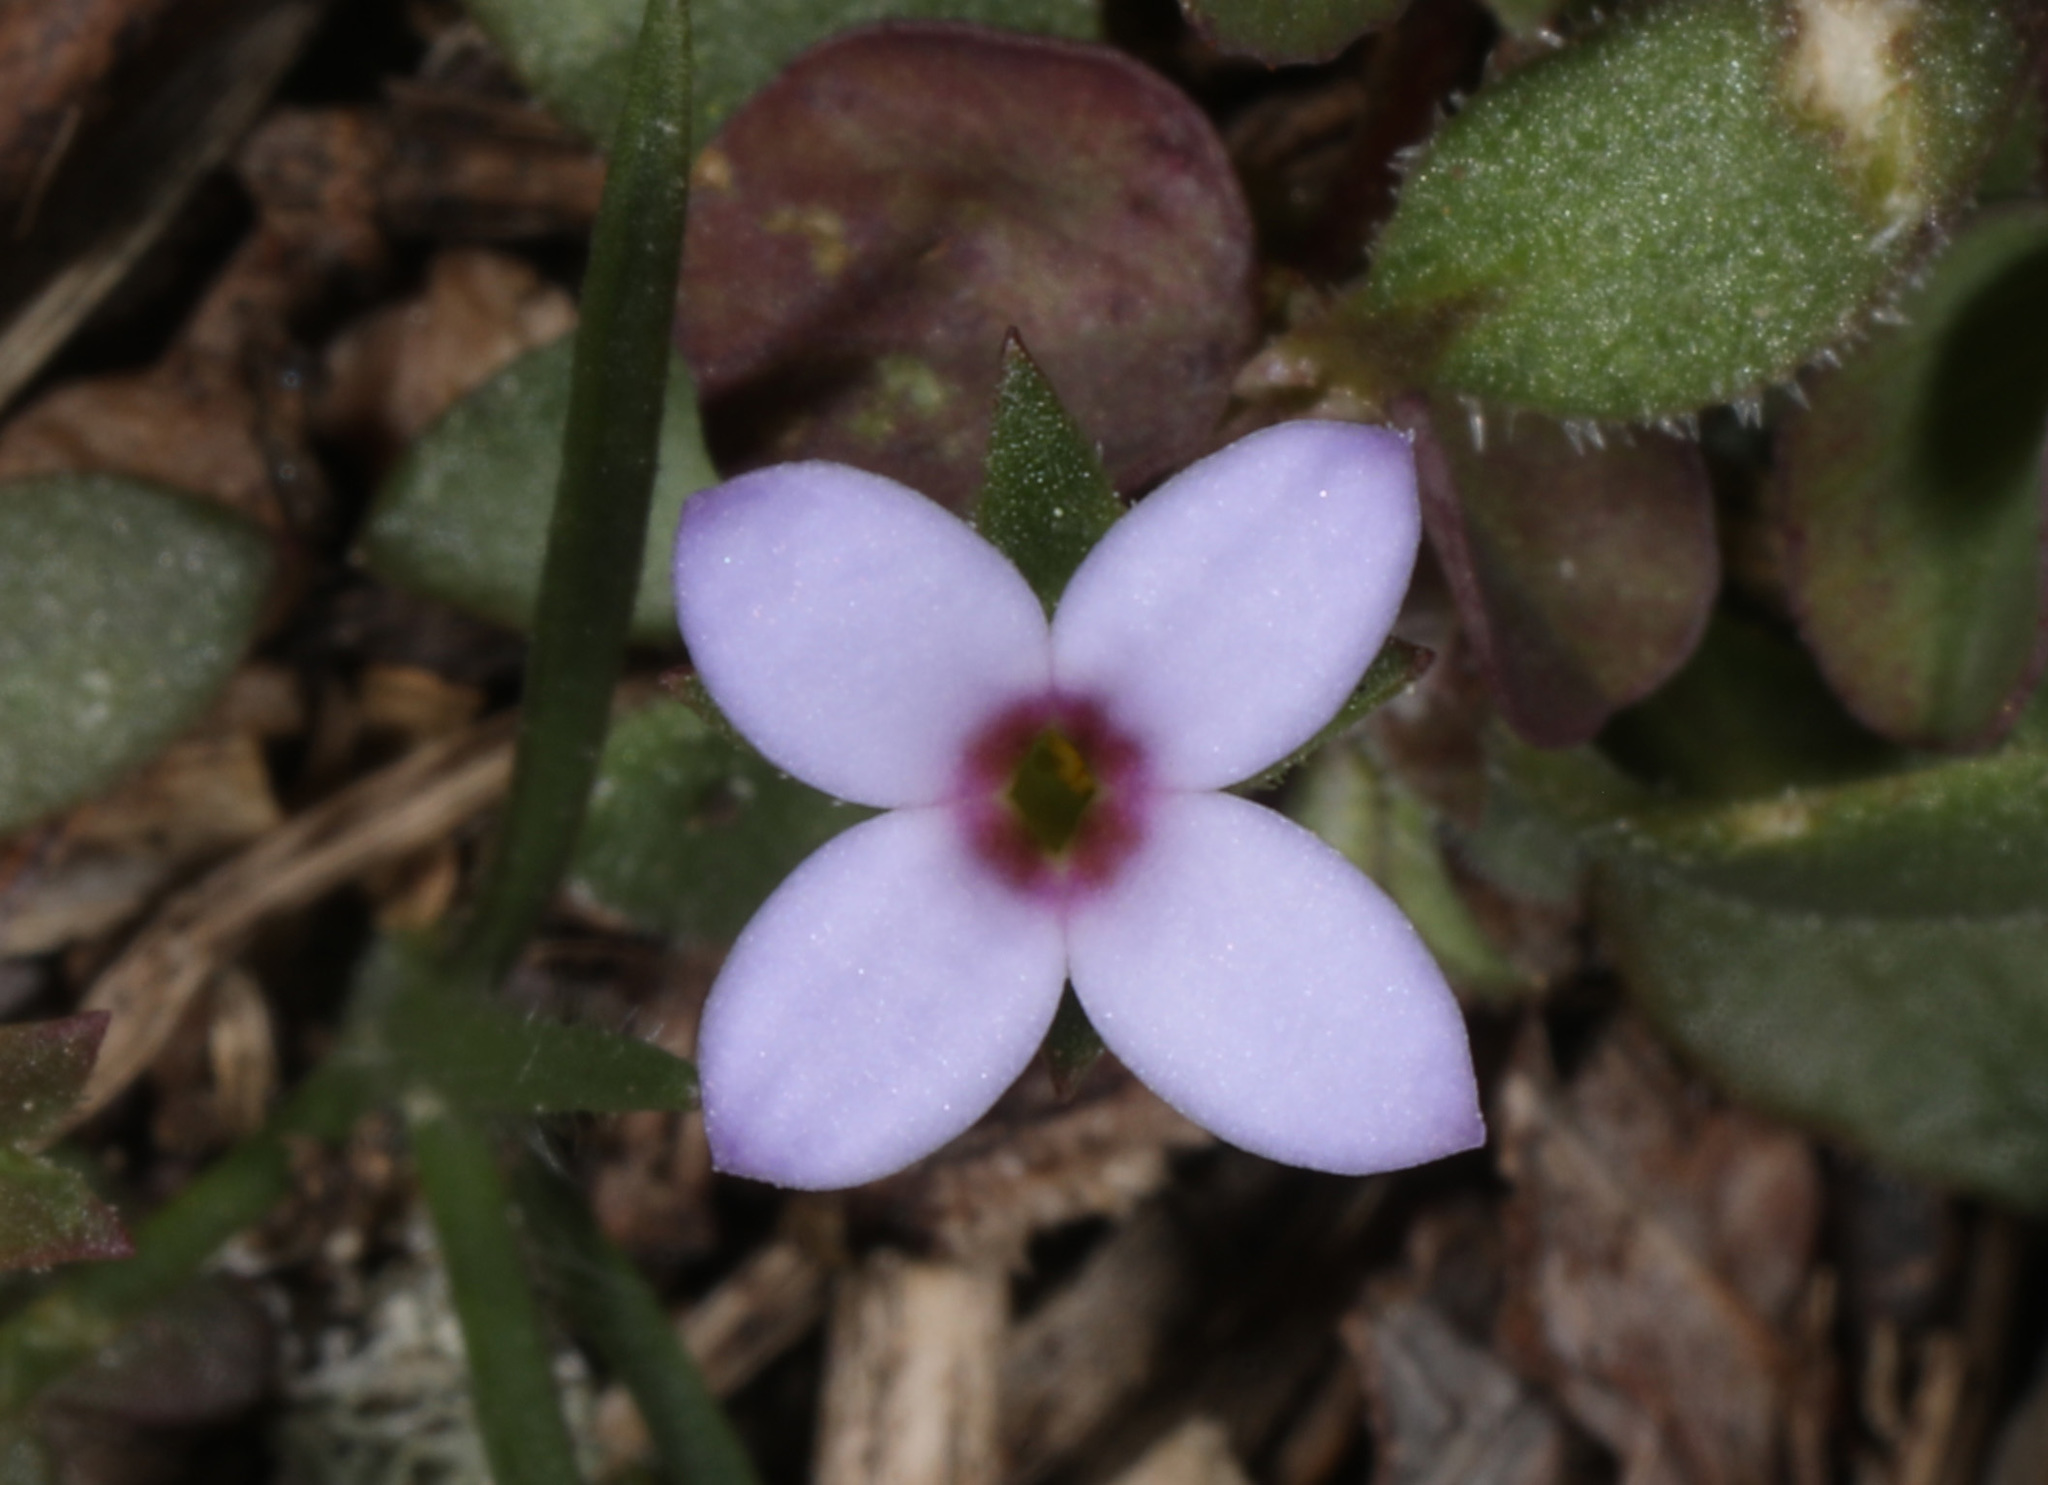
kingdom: Plantae
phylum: Tracheophyta
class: Magnoliopsida
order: Gentianales
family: Rubiaceae
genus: Houstonia
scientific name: Houstonia pusilla
